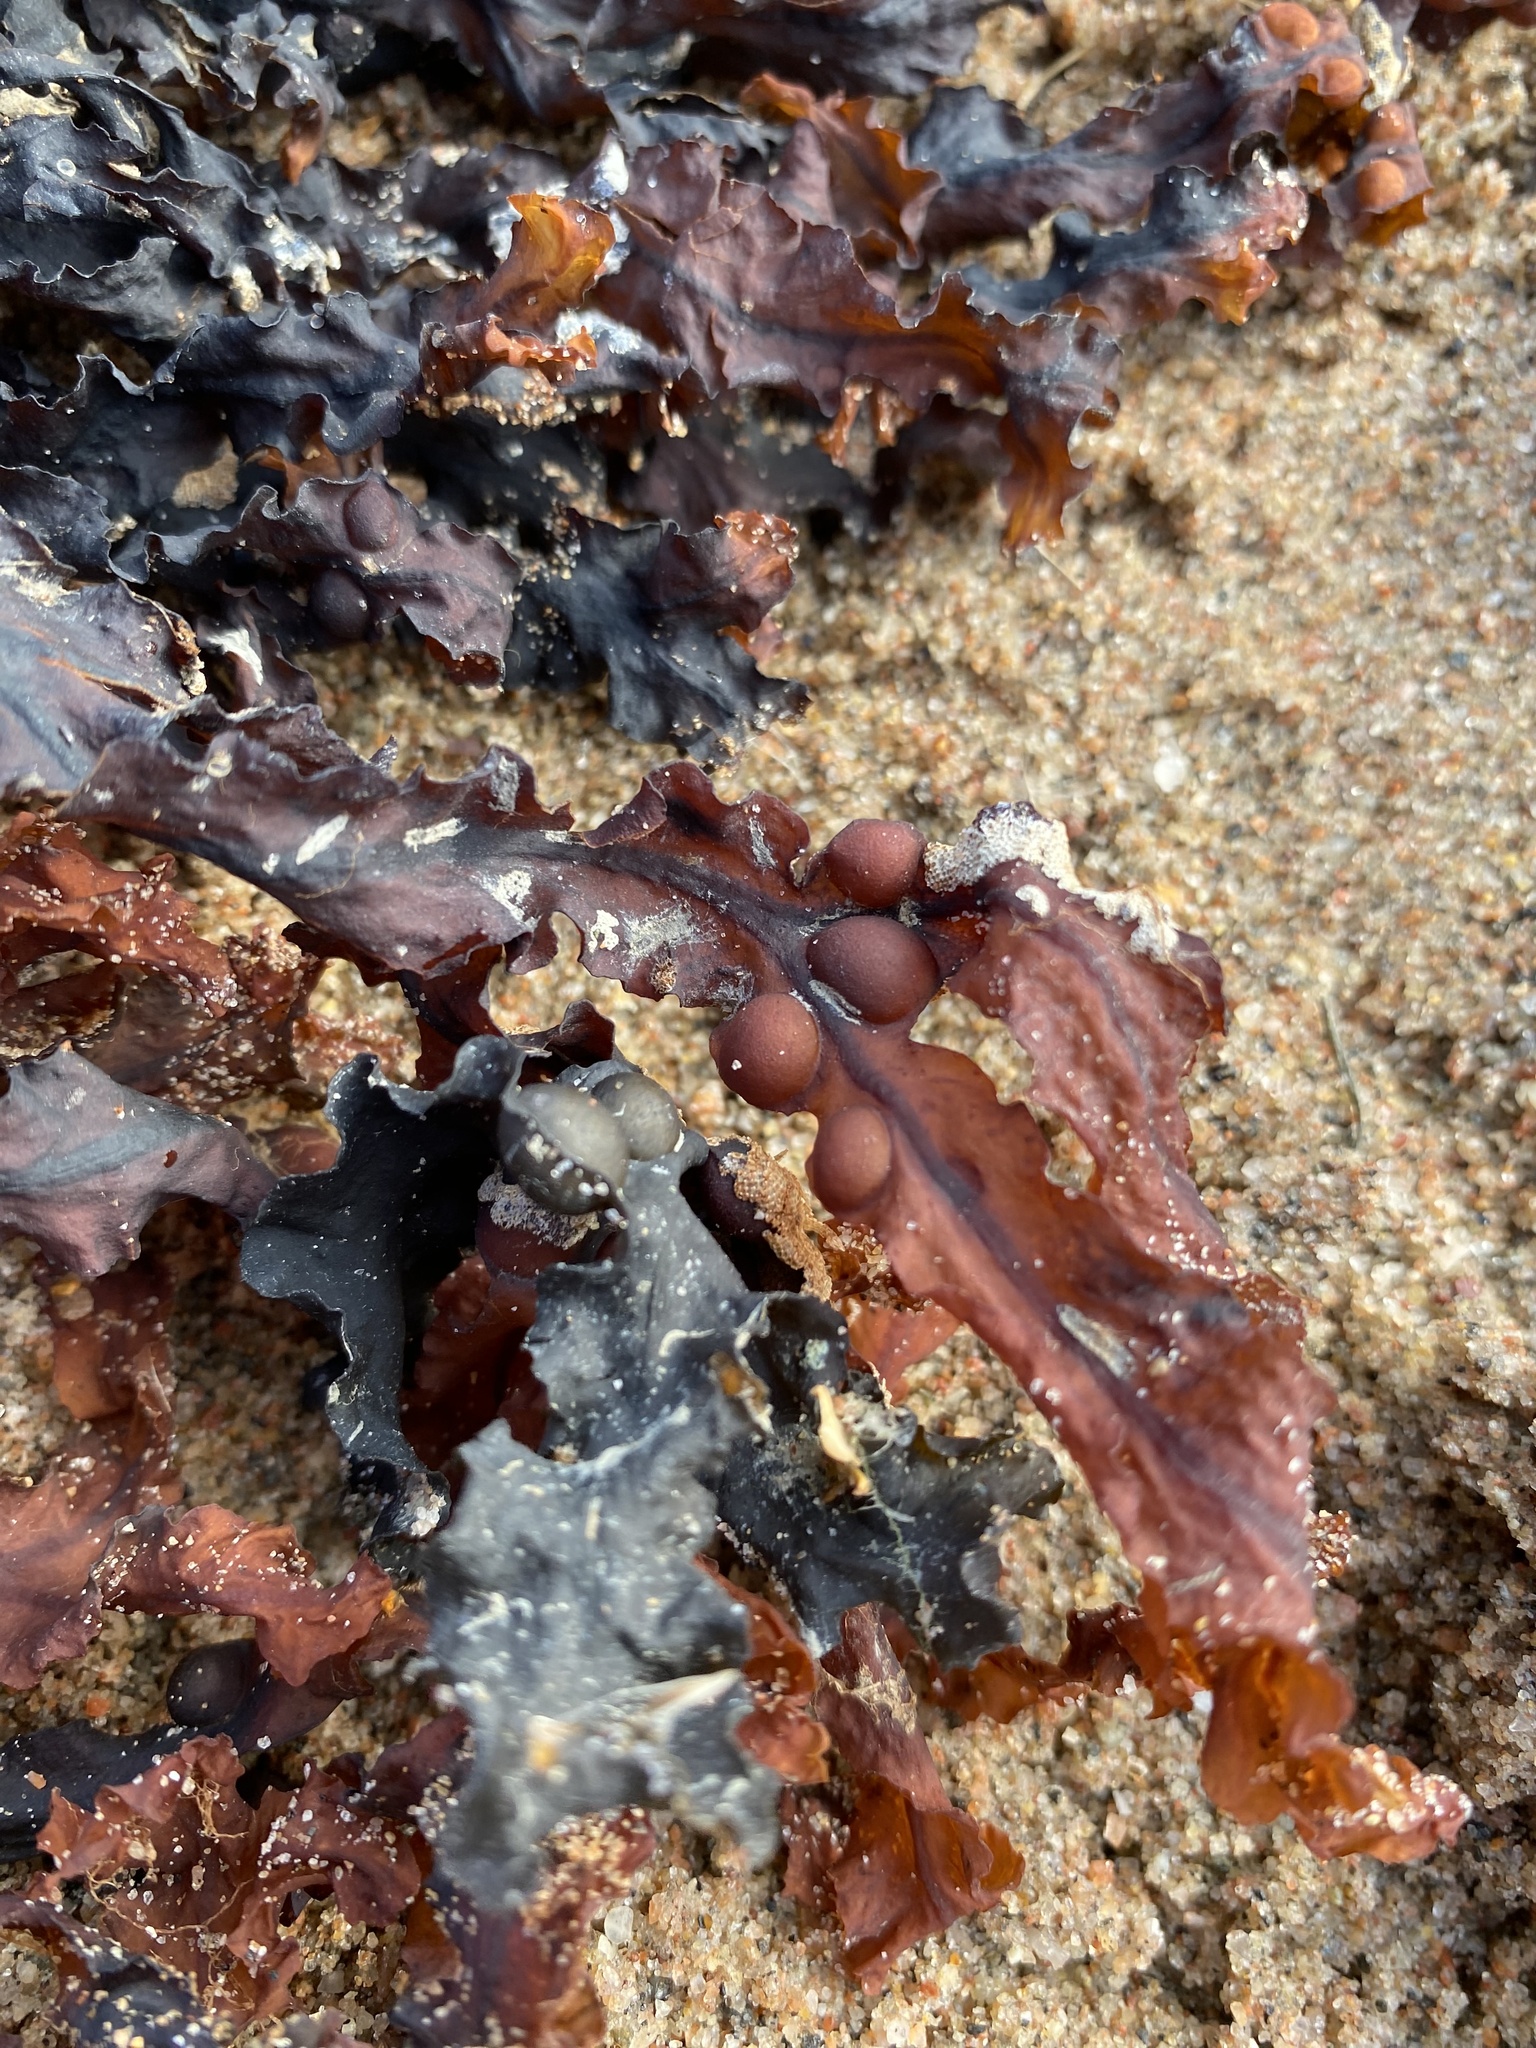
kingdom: Chromista
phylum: Ochrophyta
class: Phaeophyceae
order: Fucales
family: Fucaceae
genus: Fucus
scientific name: Fucus vesiculosus
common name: Bladder wrack
